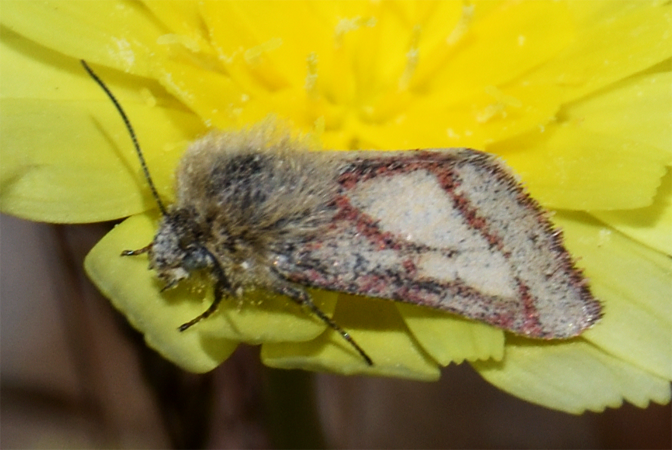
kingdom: Animalia
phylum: Arthropoda
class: Insecta
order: Lepidoptera
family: Noctuidae
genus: Heliolonche
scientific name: Heliolonche pictipennis
